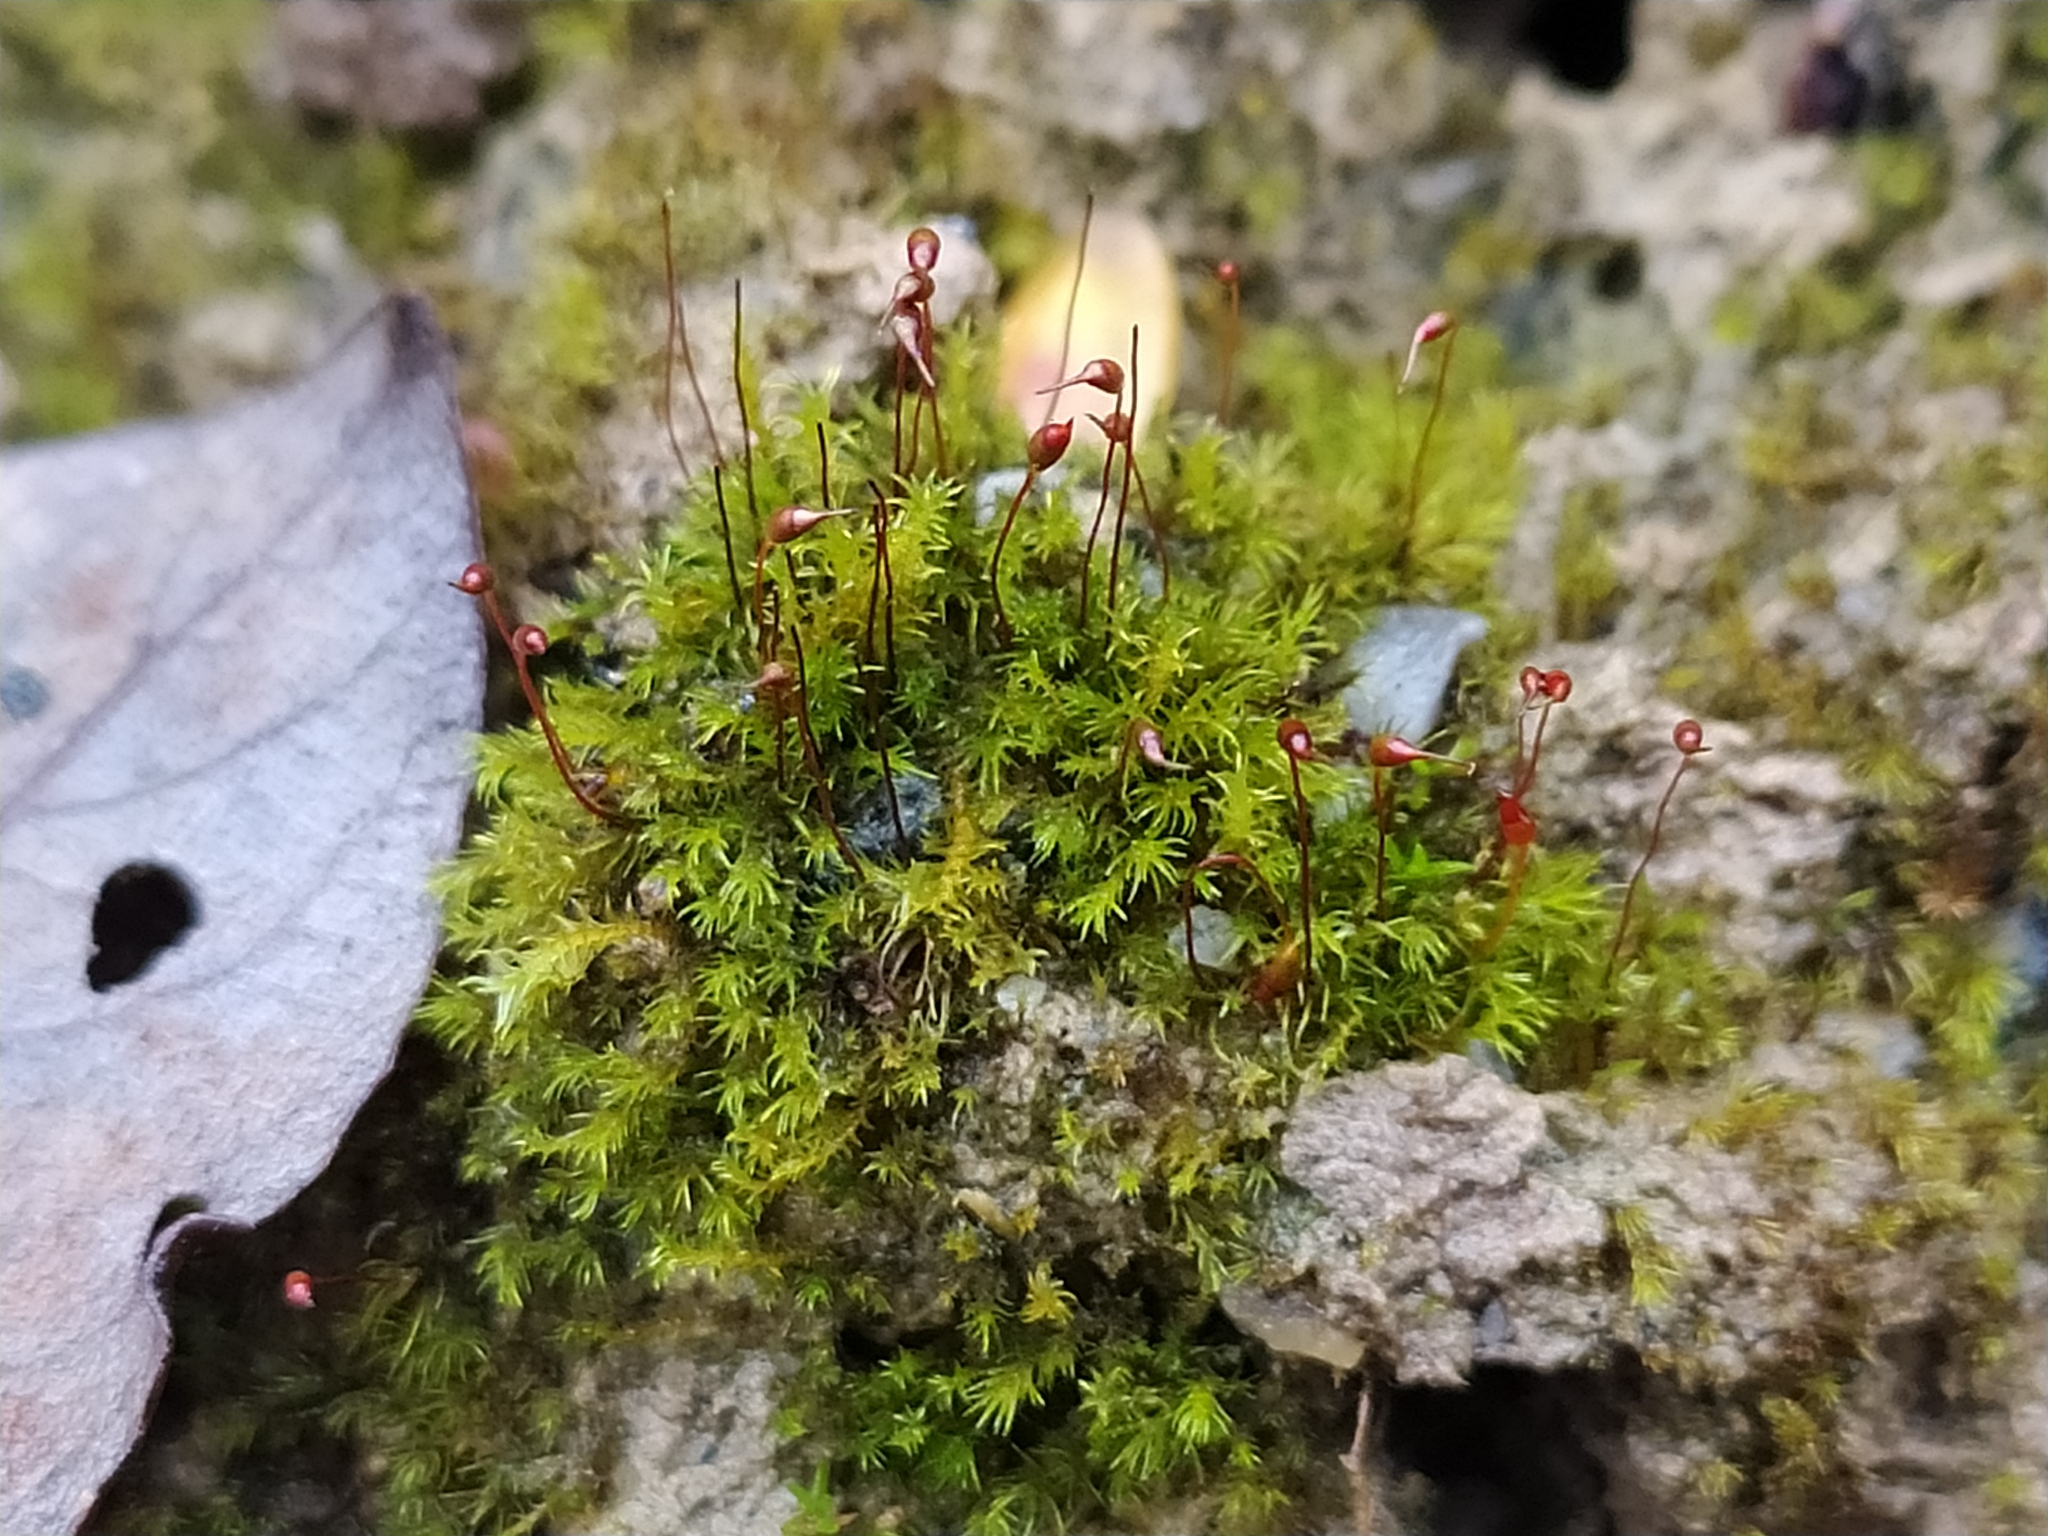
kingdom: Plantae
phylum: Bryophyta
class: Bryopsida
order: Dicranales
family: Dicranellaceae
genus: Dicranella
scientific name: Dicranella varia
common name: Variable forklet moss
